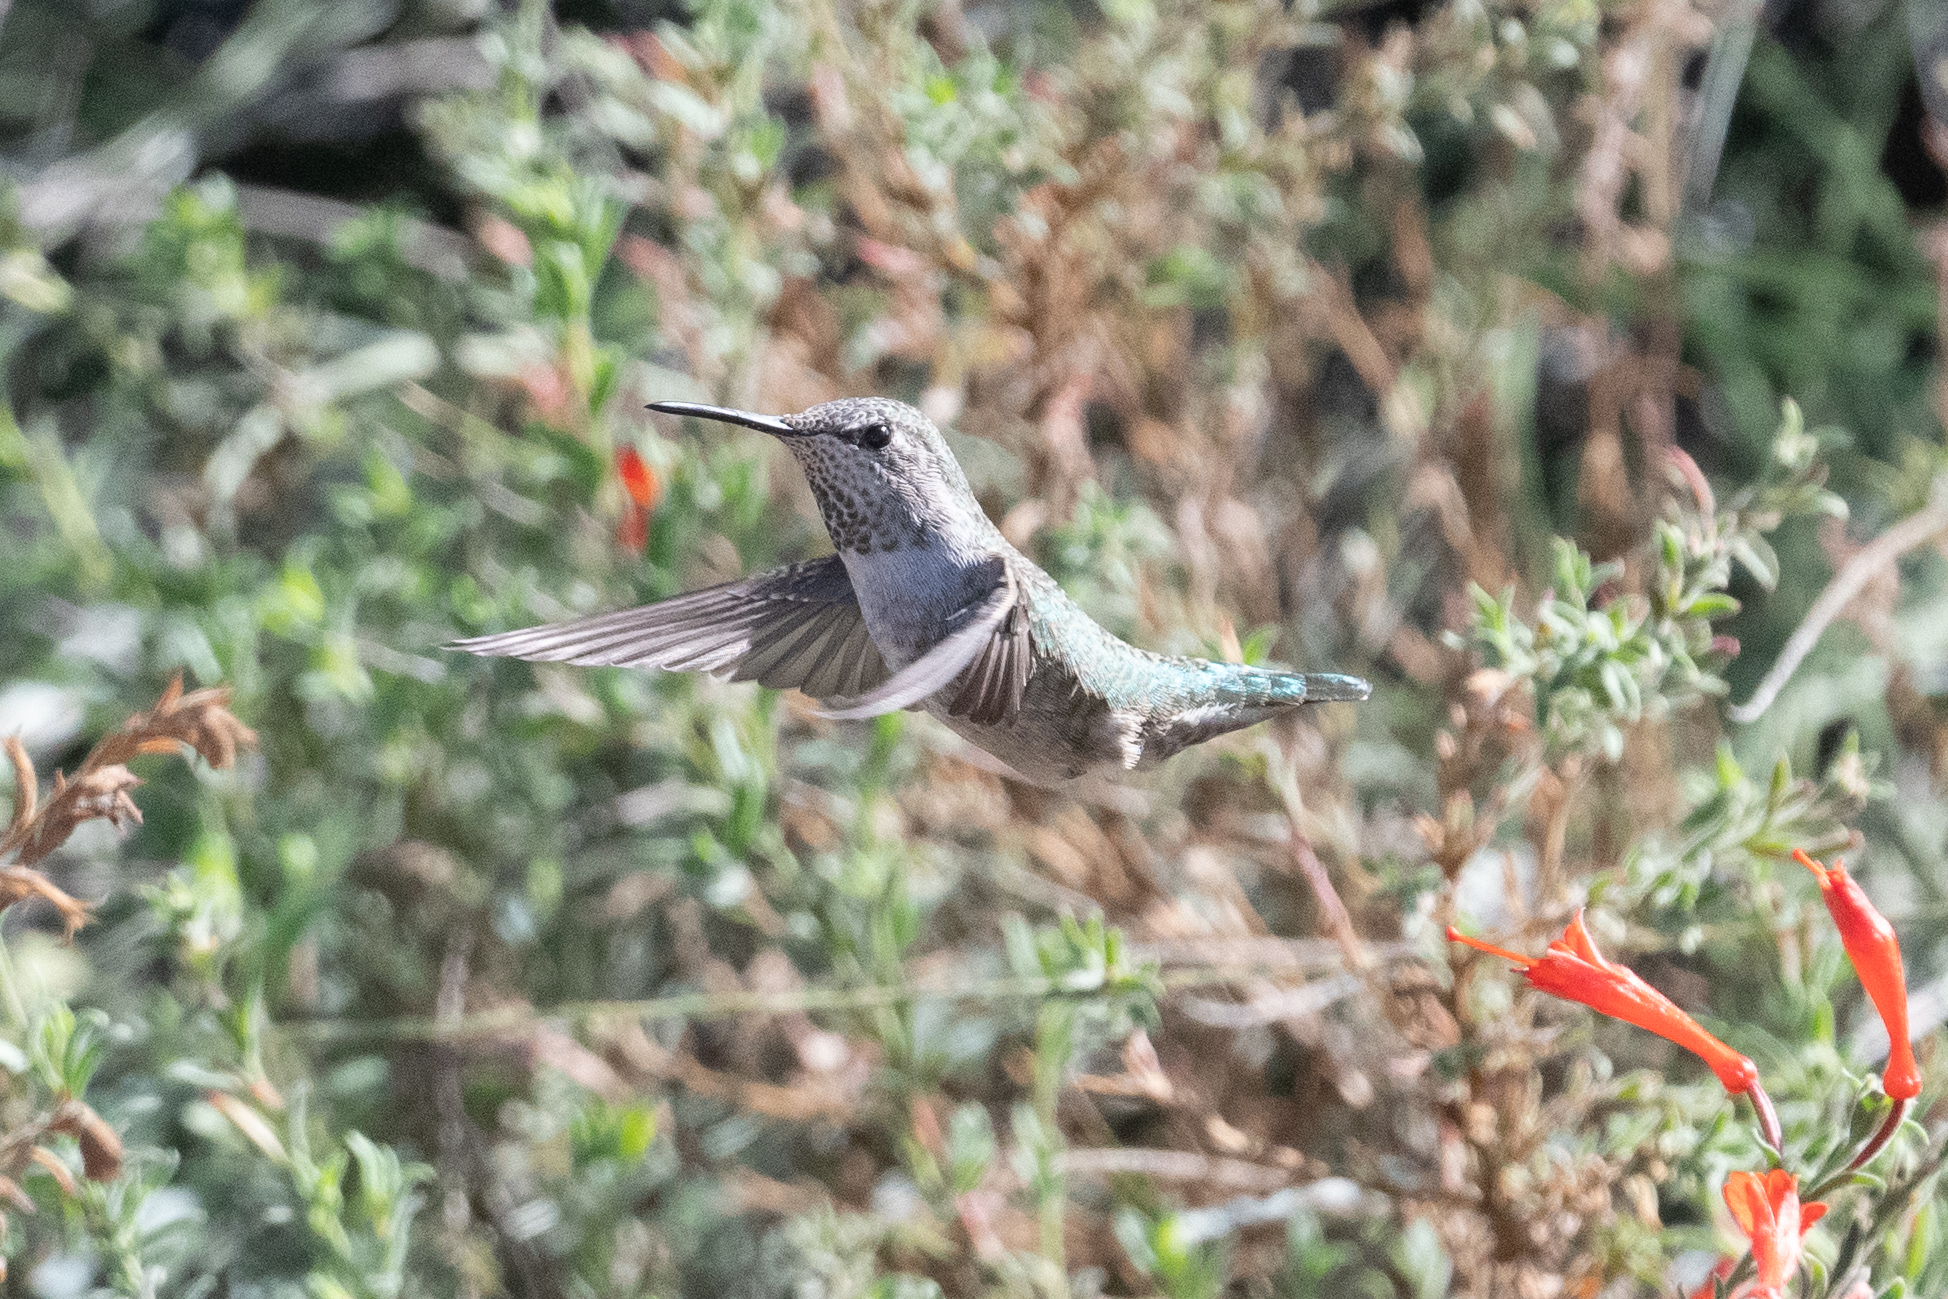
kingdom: Animalia
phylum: Chordata
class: Aves
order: Apodiformes
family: Trochilidae
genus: Calypte
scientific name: Calypte anna
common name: Anna's hummingbird
